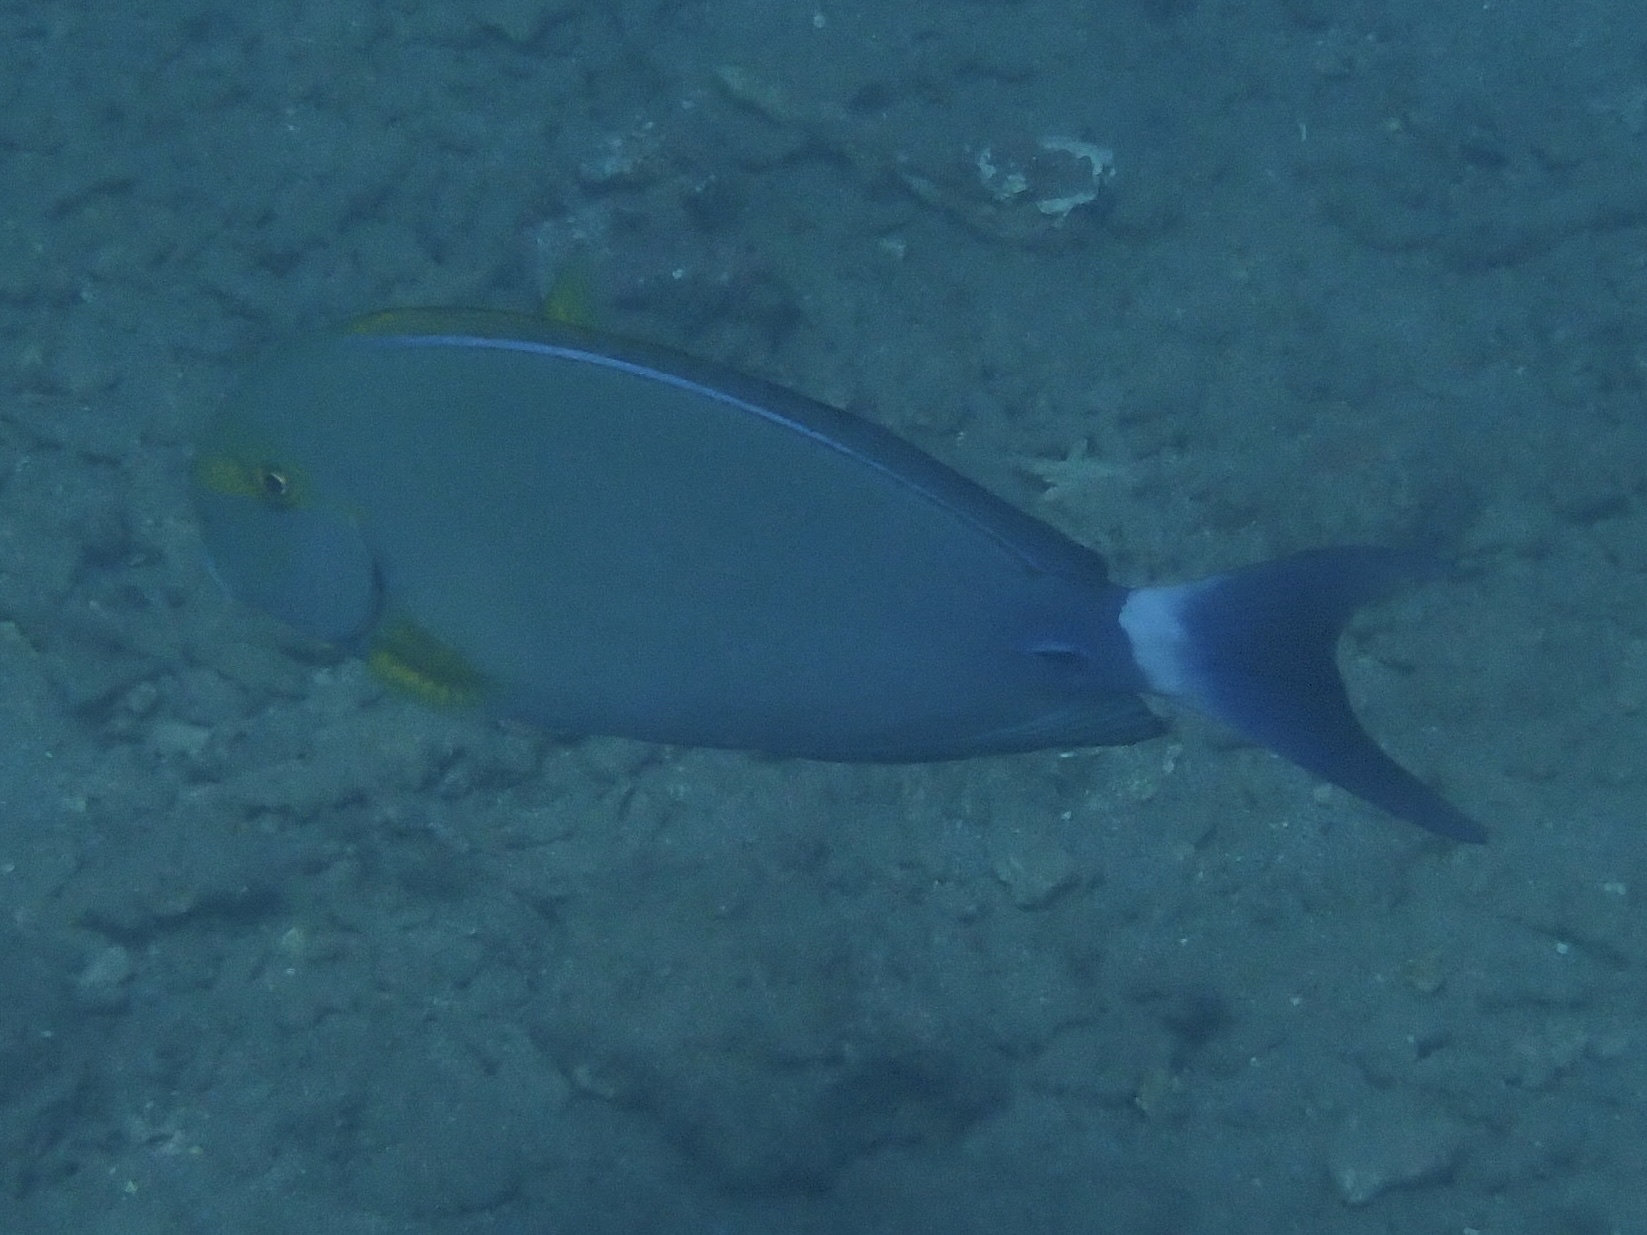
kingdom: Animalia
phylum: Chordata
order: Perciformes
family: Acanthuridae
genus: Acanthurus
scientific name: Acanthurus xanthopterus
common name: Cuvier's surgeonfish
